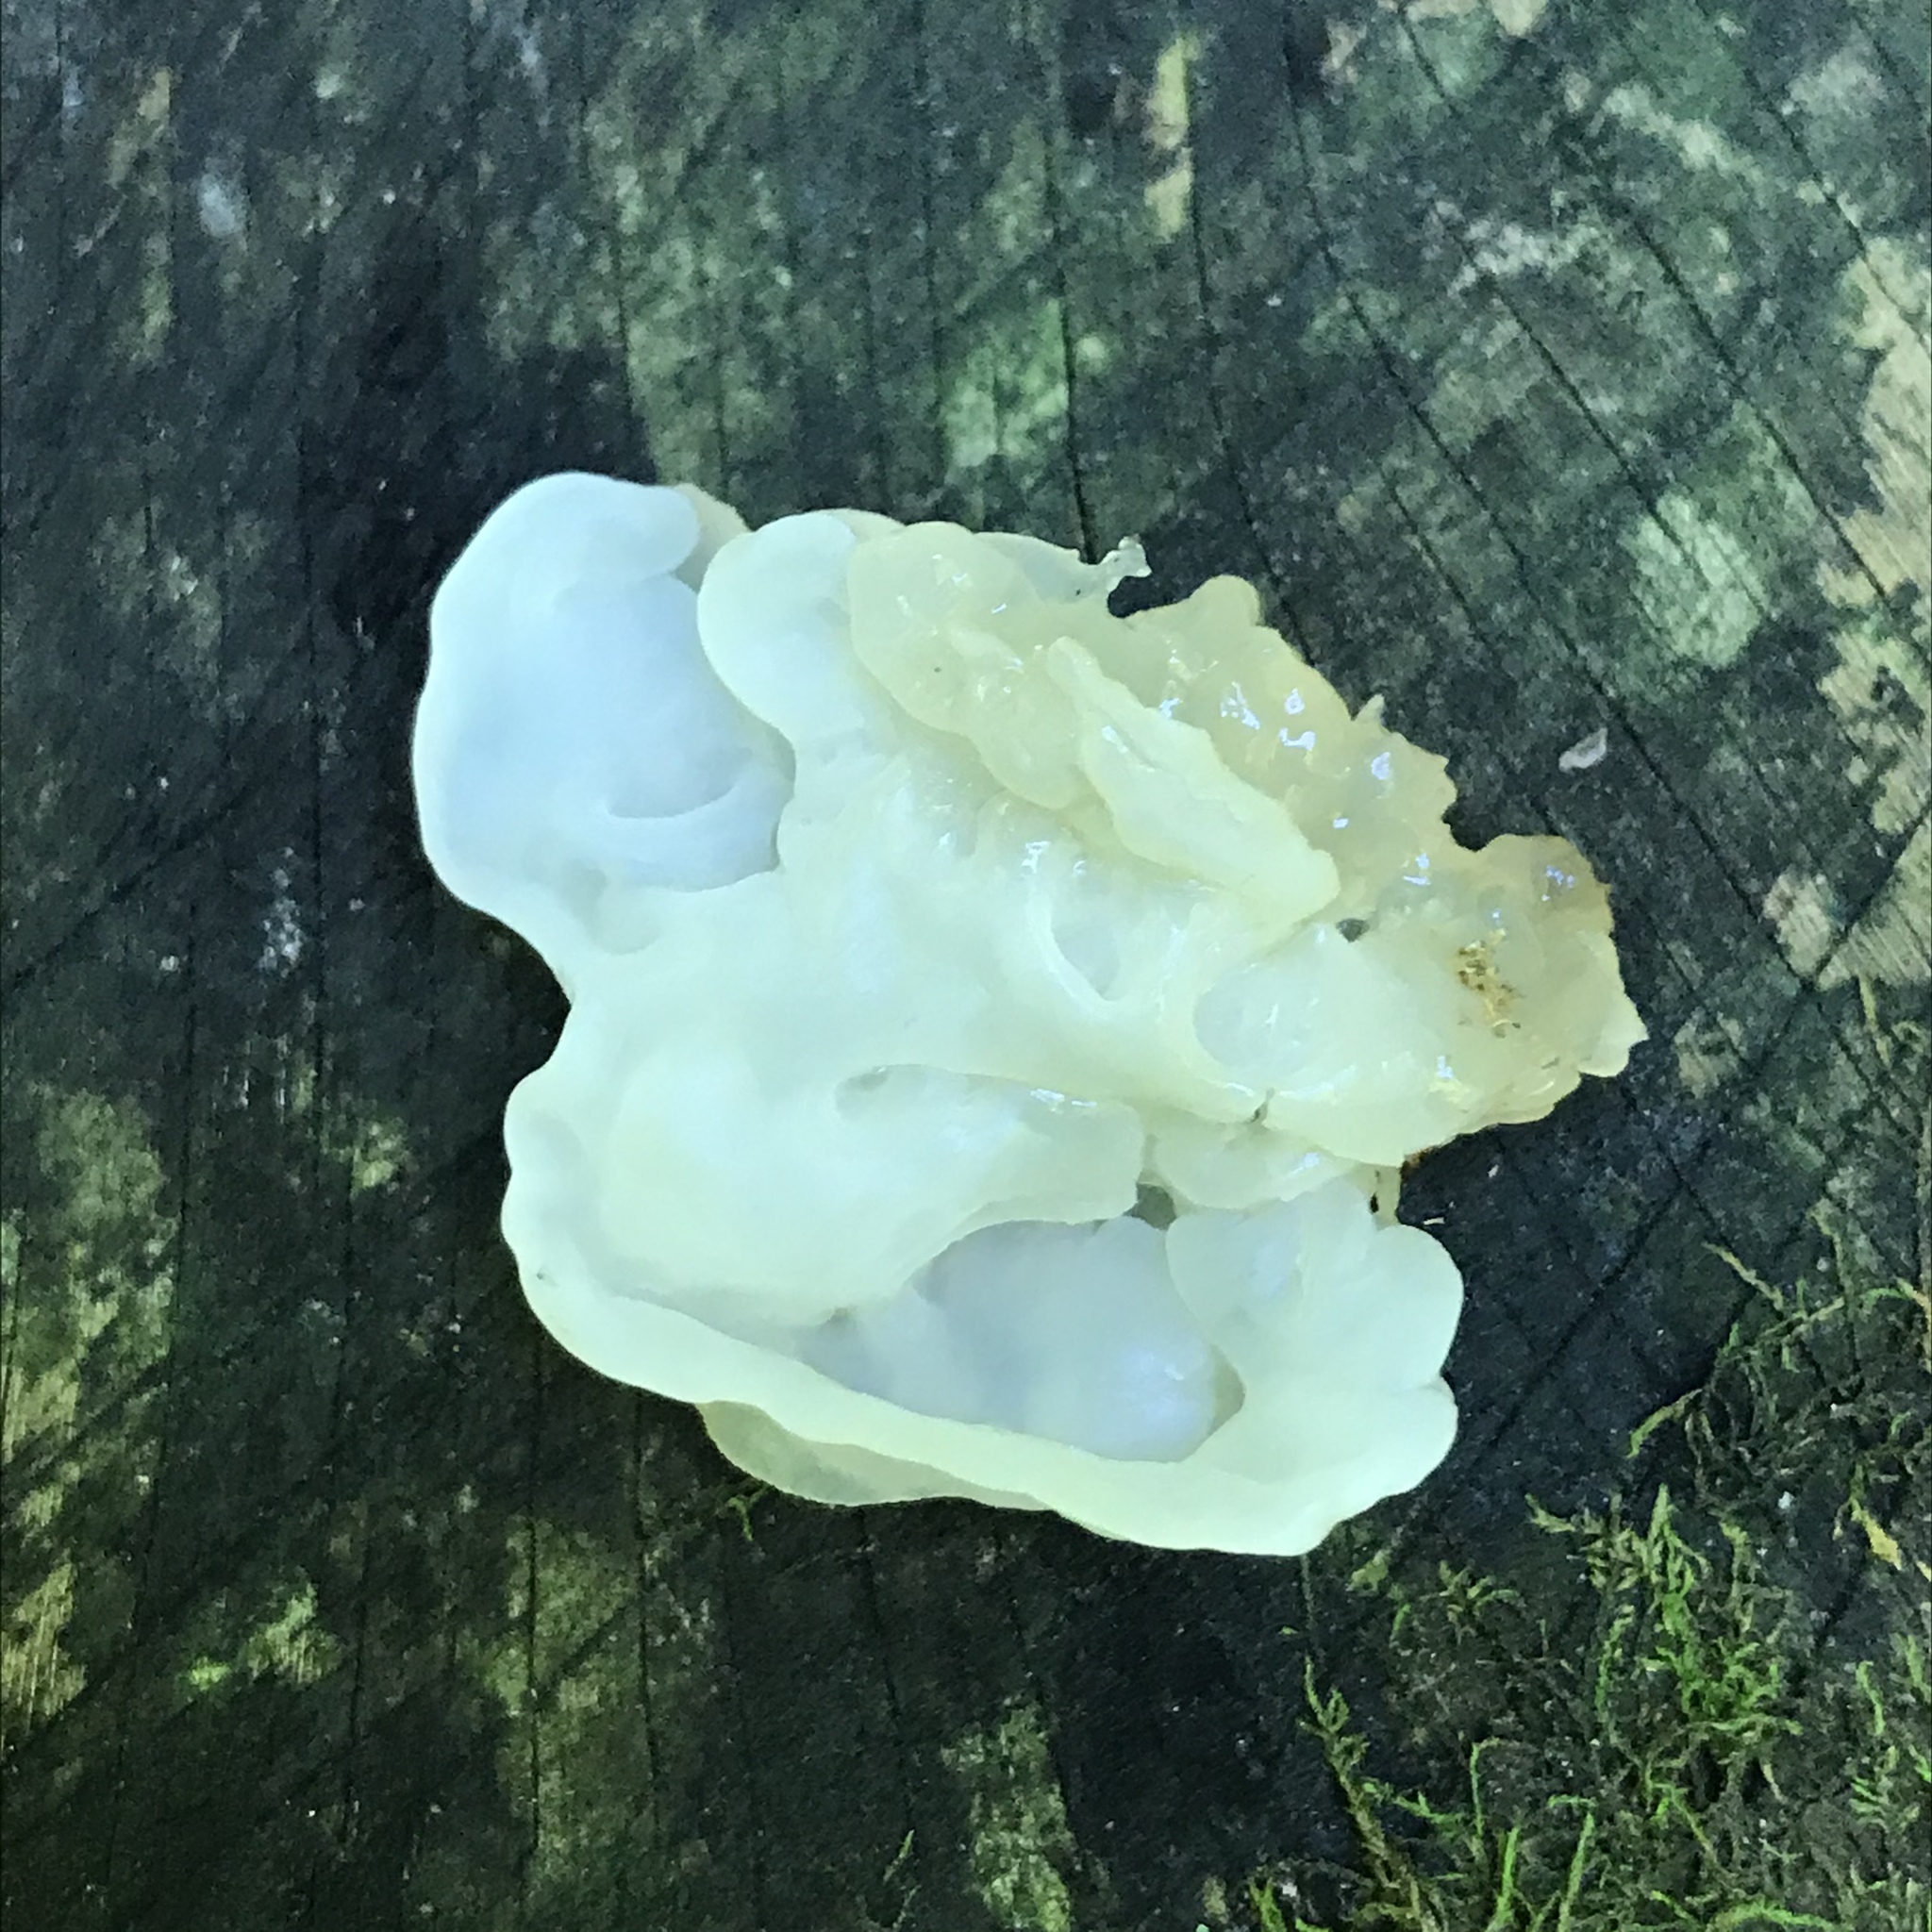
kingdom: Fungi
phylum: Basidiomycota
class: Agaricomycetes
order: Auriculariales
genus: Ductifera
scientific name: Ductifera pululahuana
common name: White jelly fungus
